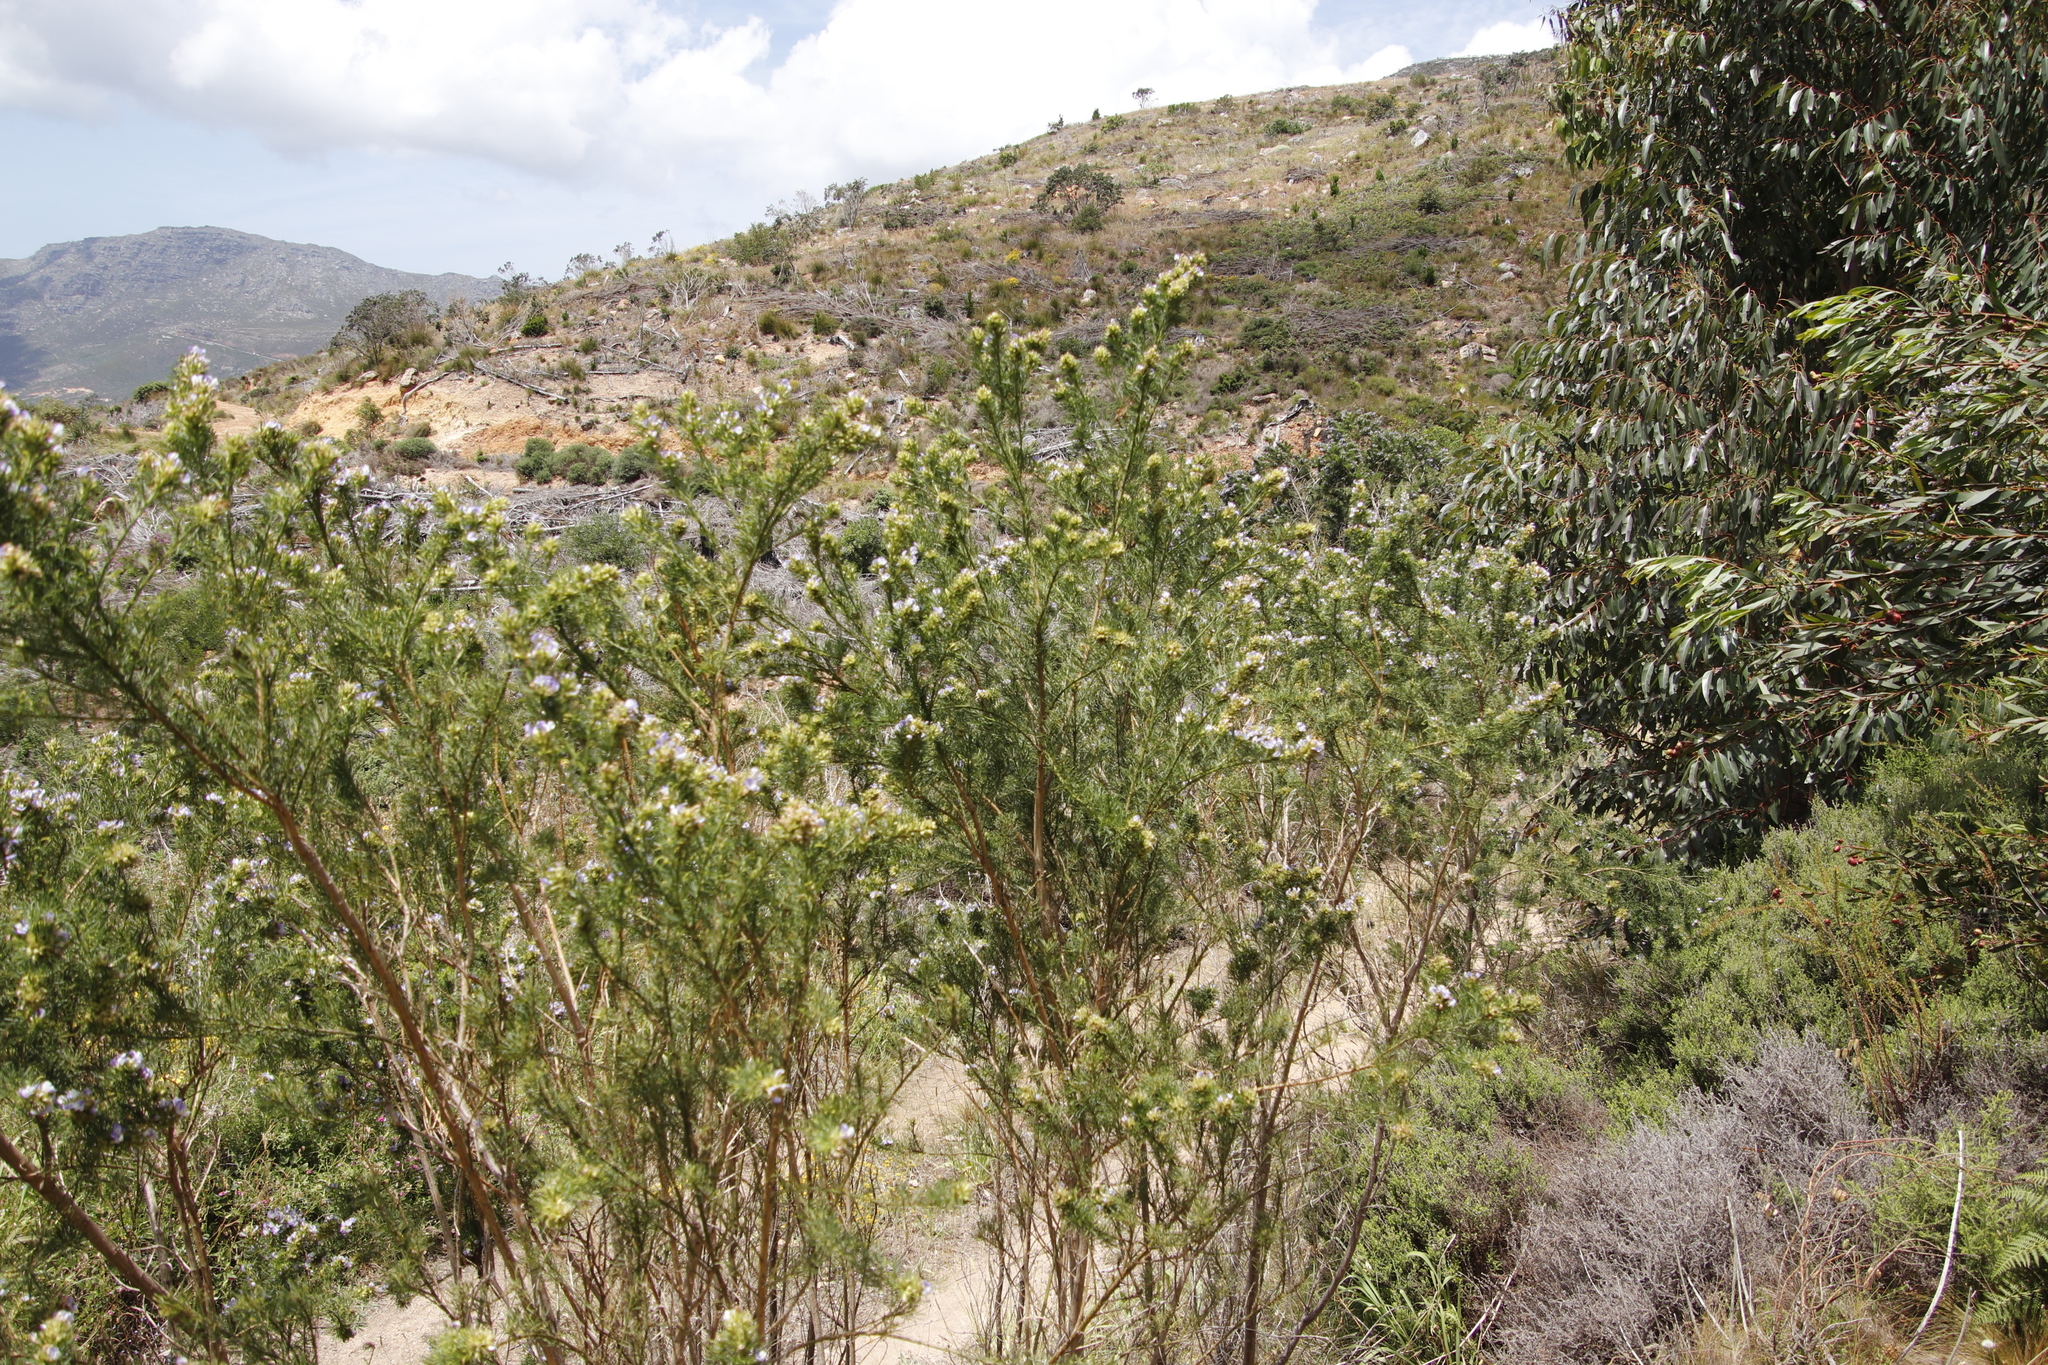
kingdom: Plantae
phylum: Tracheophyta
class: Magnoliopsida
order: Fabales
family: Fabaceae
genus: Psoralea
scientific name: Psoralea pinnata
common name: African scurfpea
